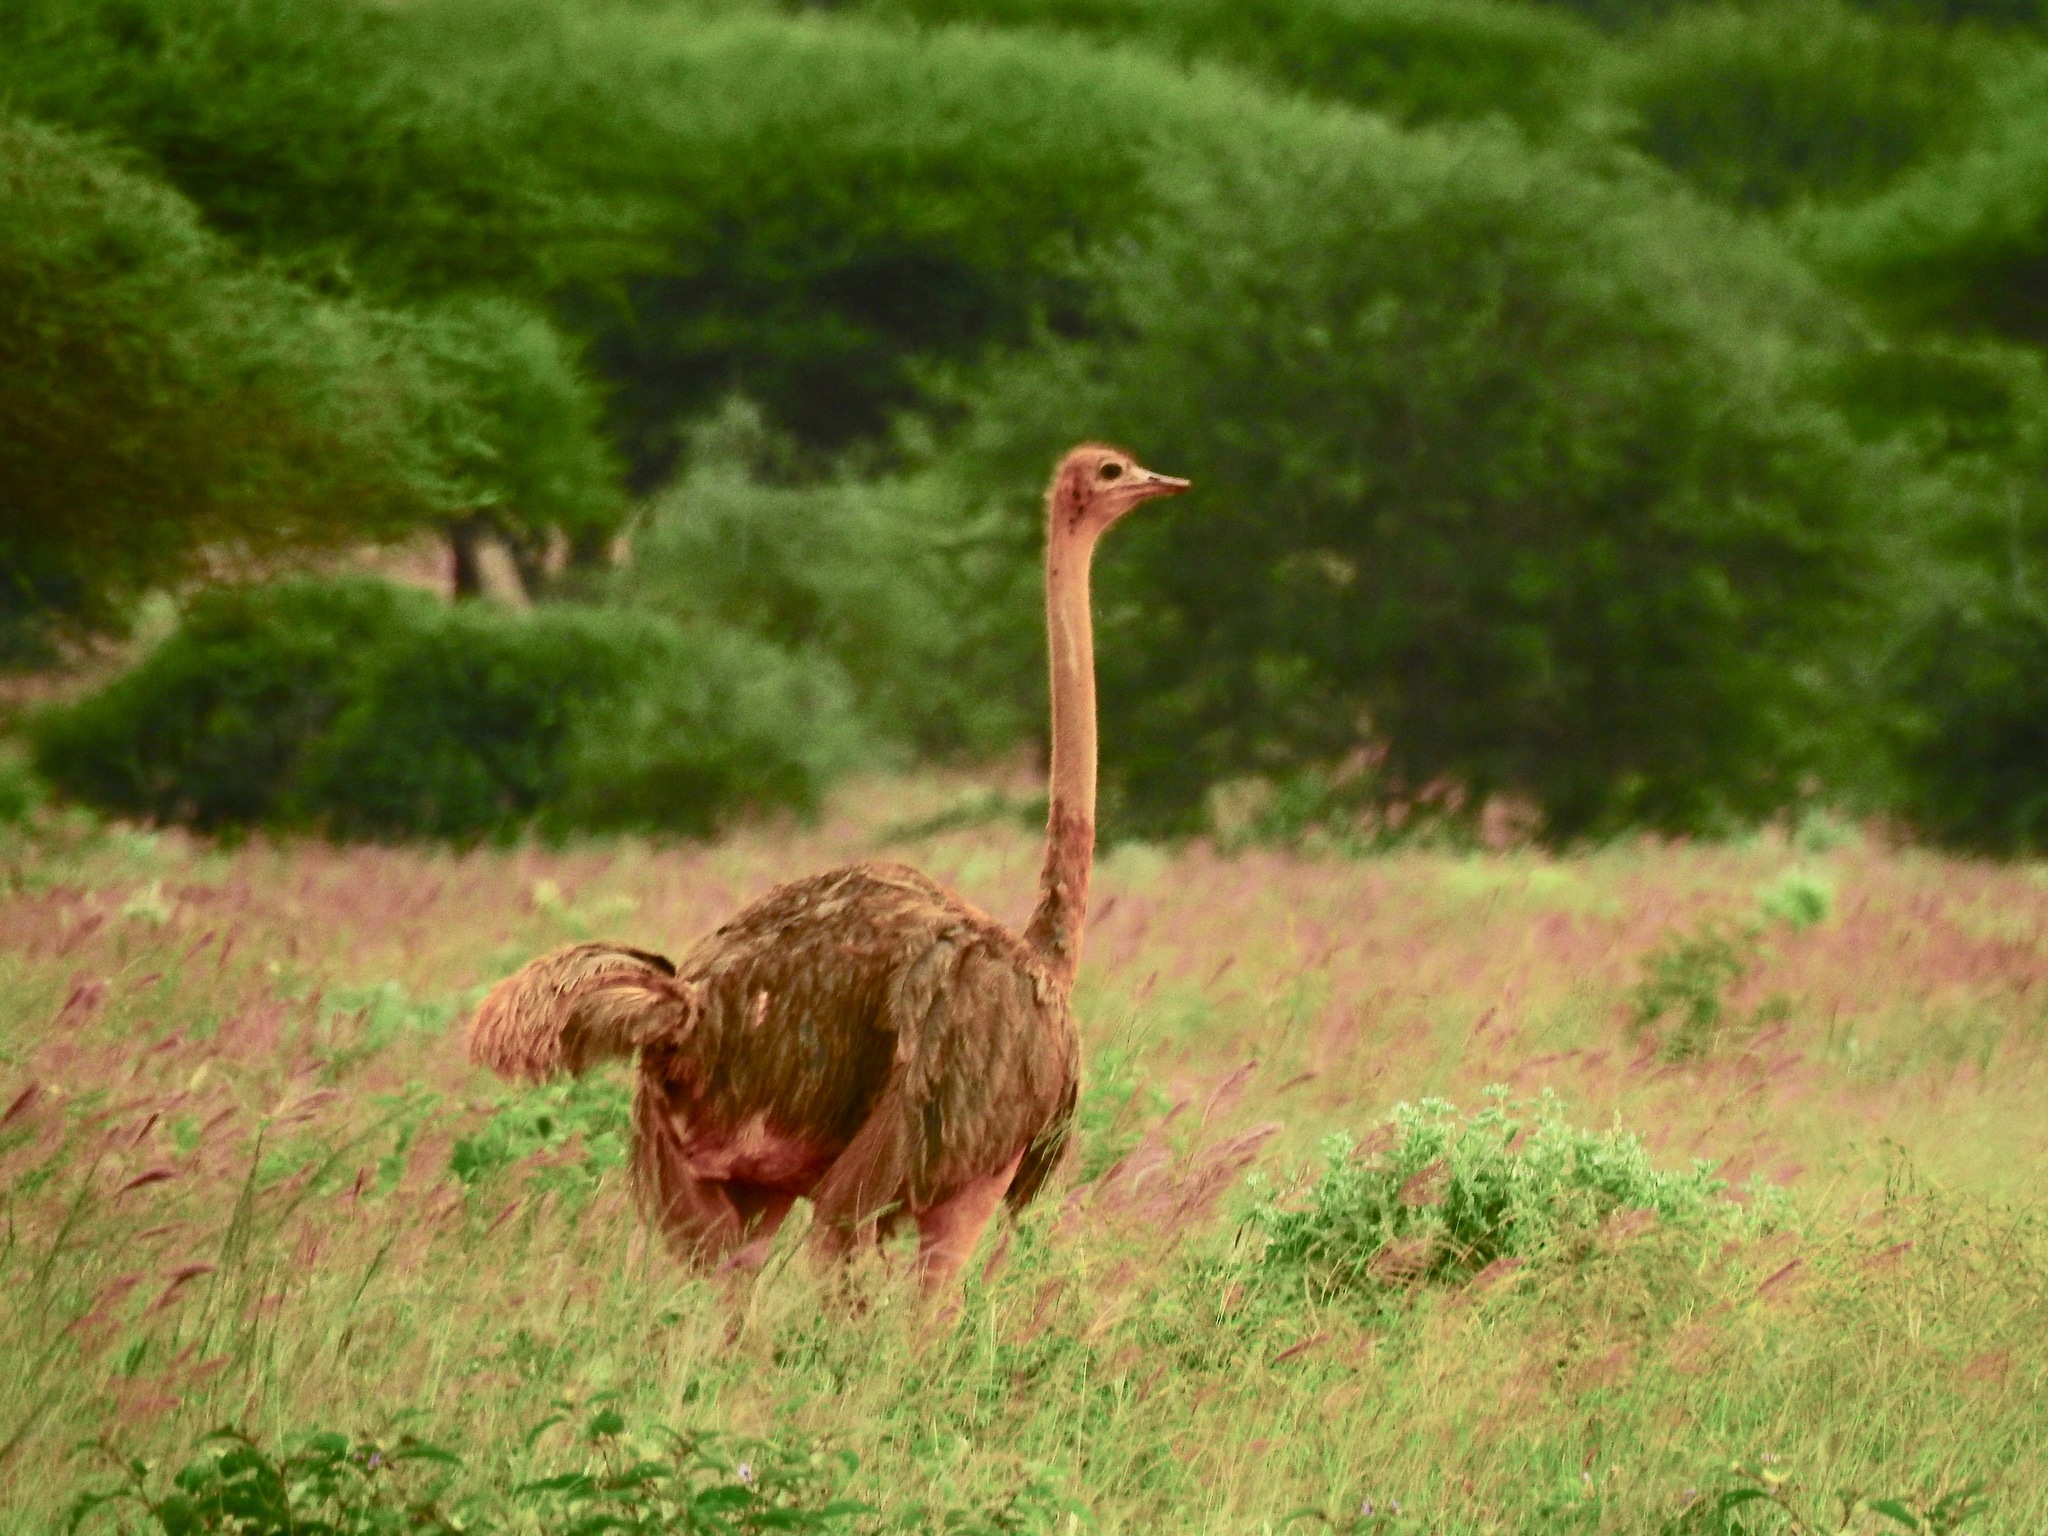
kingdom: Animalia
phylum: Chordata
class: Aves
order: Struthioniformes
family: Struthionidae
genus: Struthio
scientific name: Struthio camelus
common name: Common ostrich
